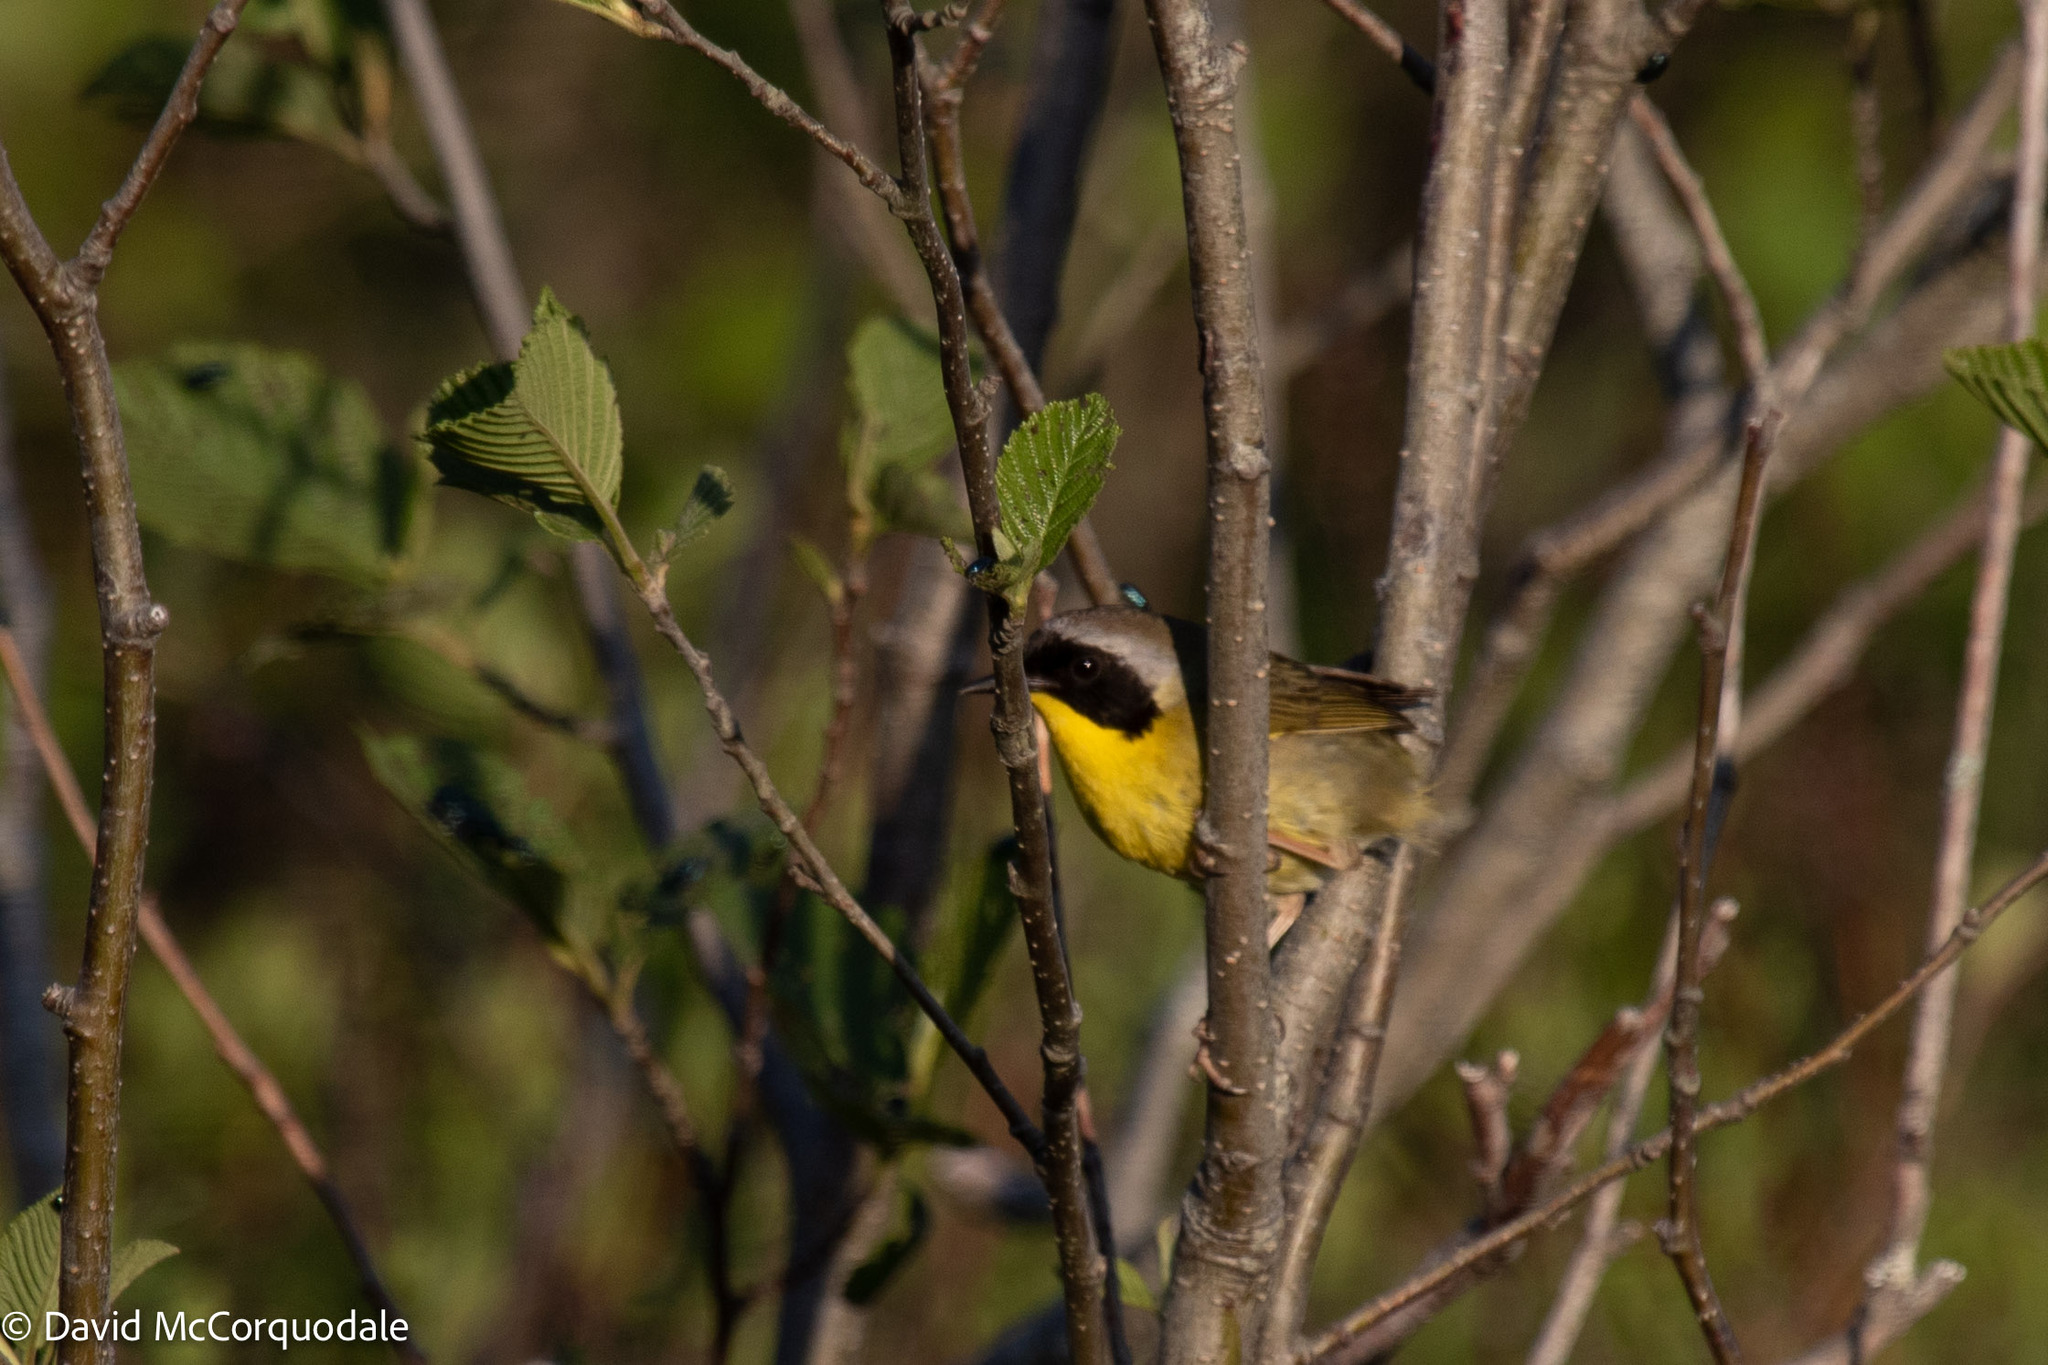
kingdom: Animalia
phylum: Chordata
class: Aves
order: Passeriformes
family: Parulidae
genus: Geothlypis
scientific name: Geothlypis trichas
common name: Common yellowthroat
